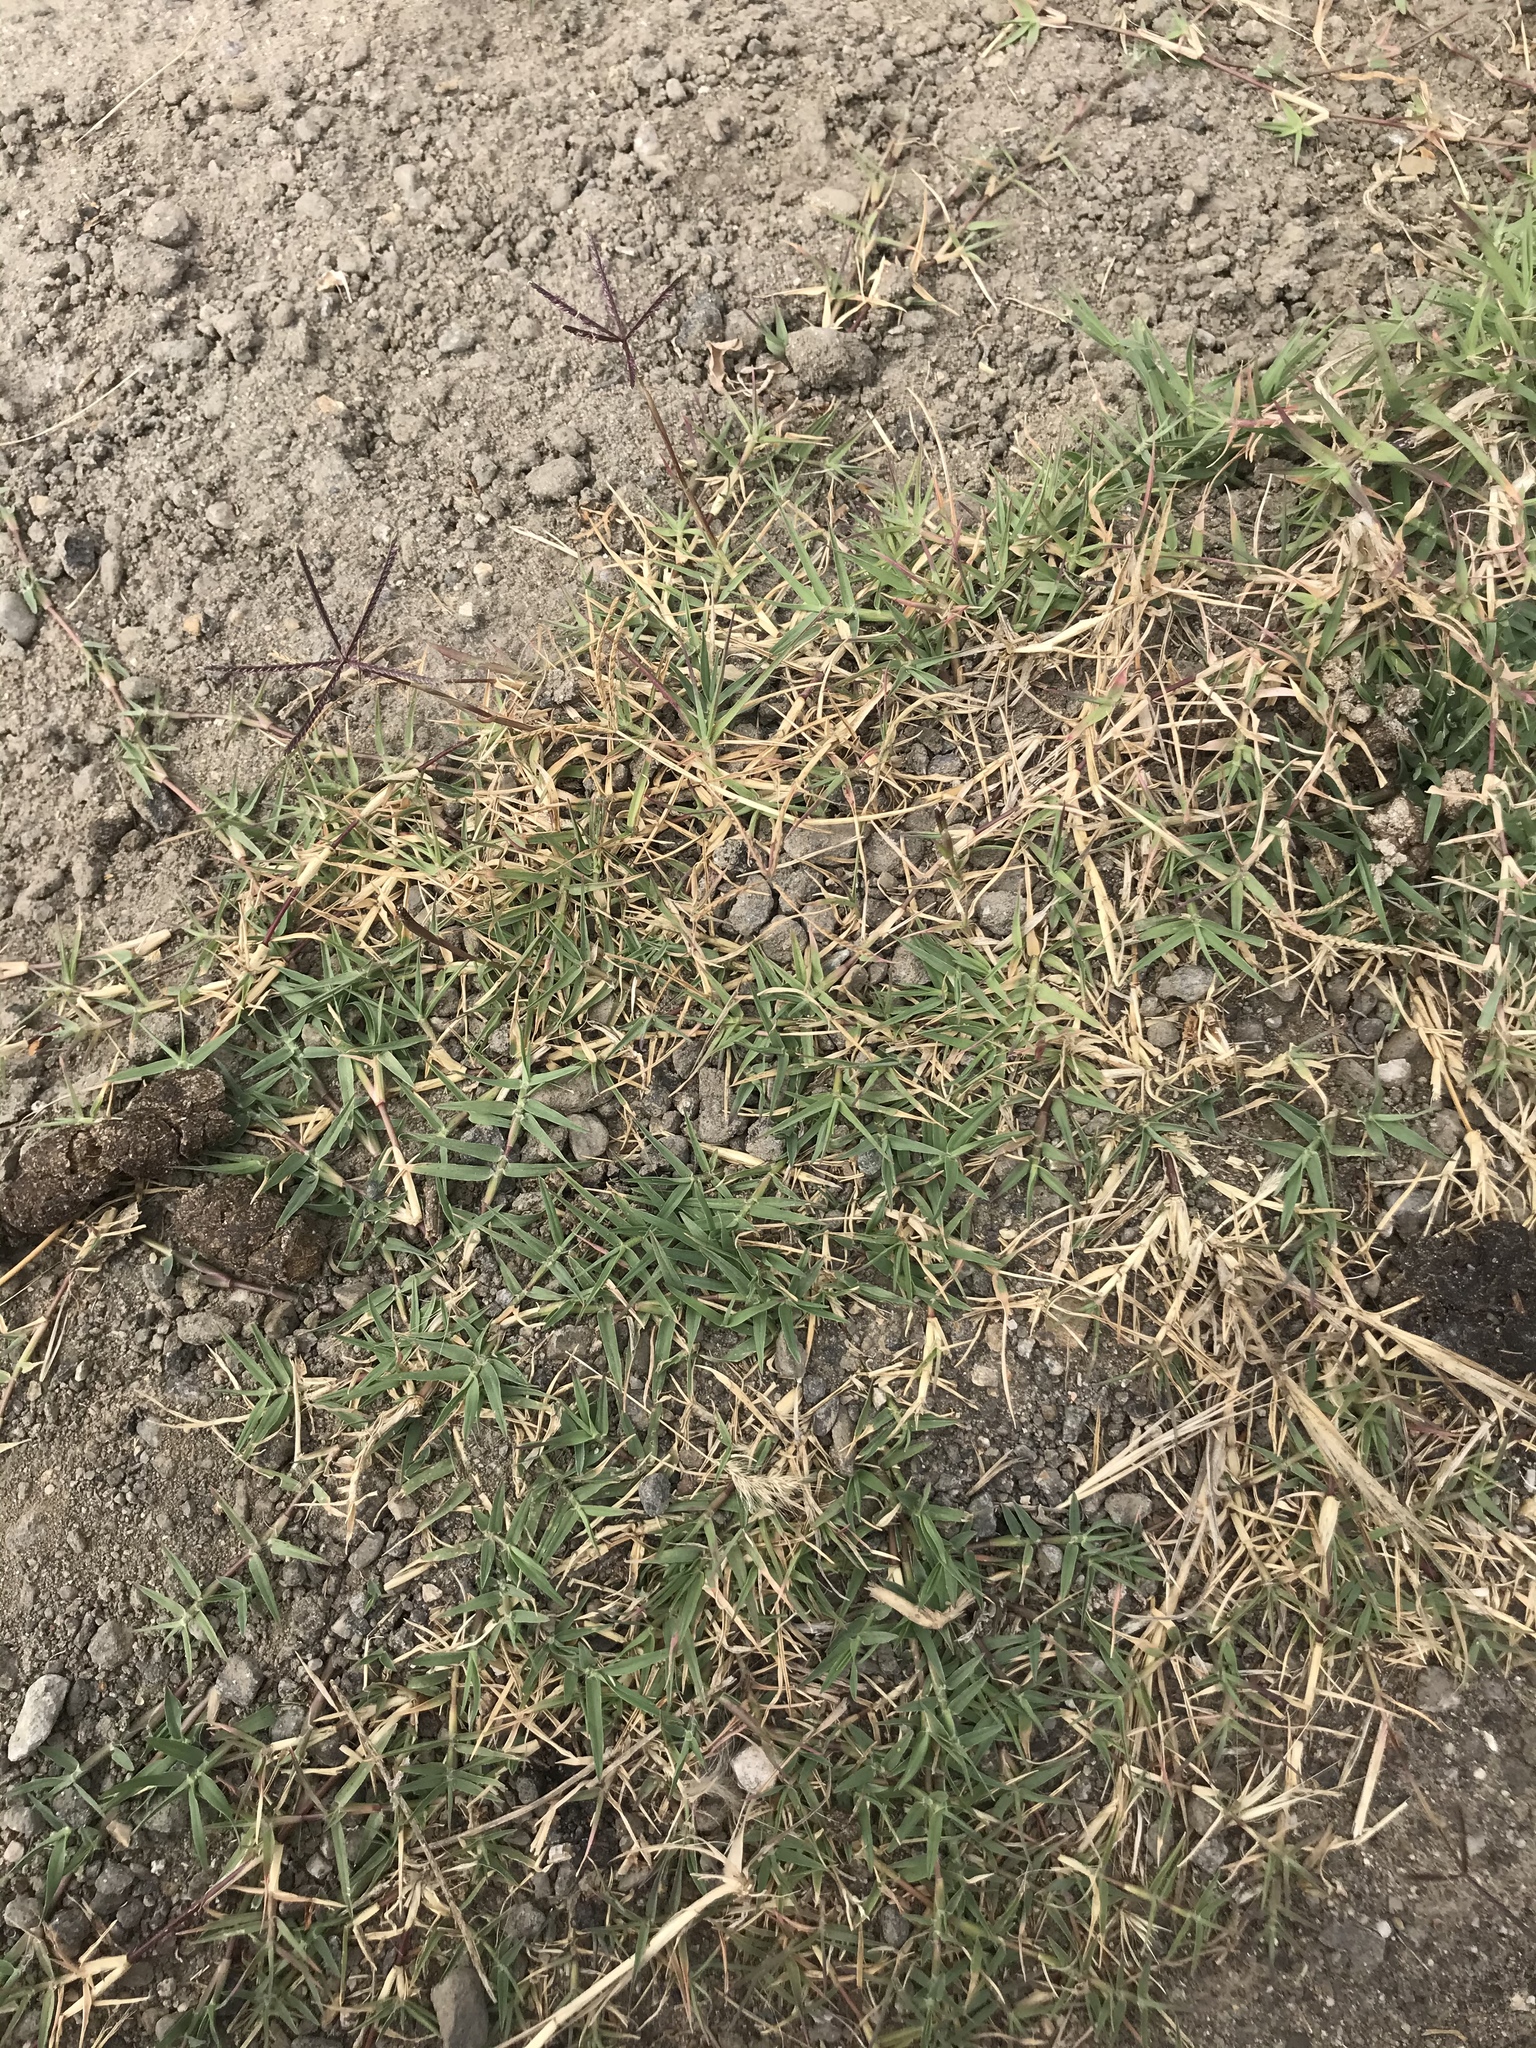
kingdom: Plantae
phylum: Tracheophyta
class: Liliopsida
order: Poales
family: Poaceae
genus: Cynodon
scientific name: Cynodon dactylon
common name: Bermuda grass
